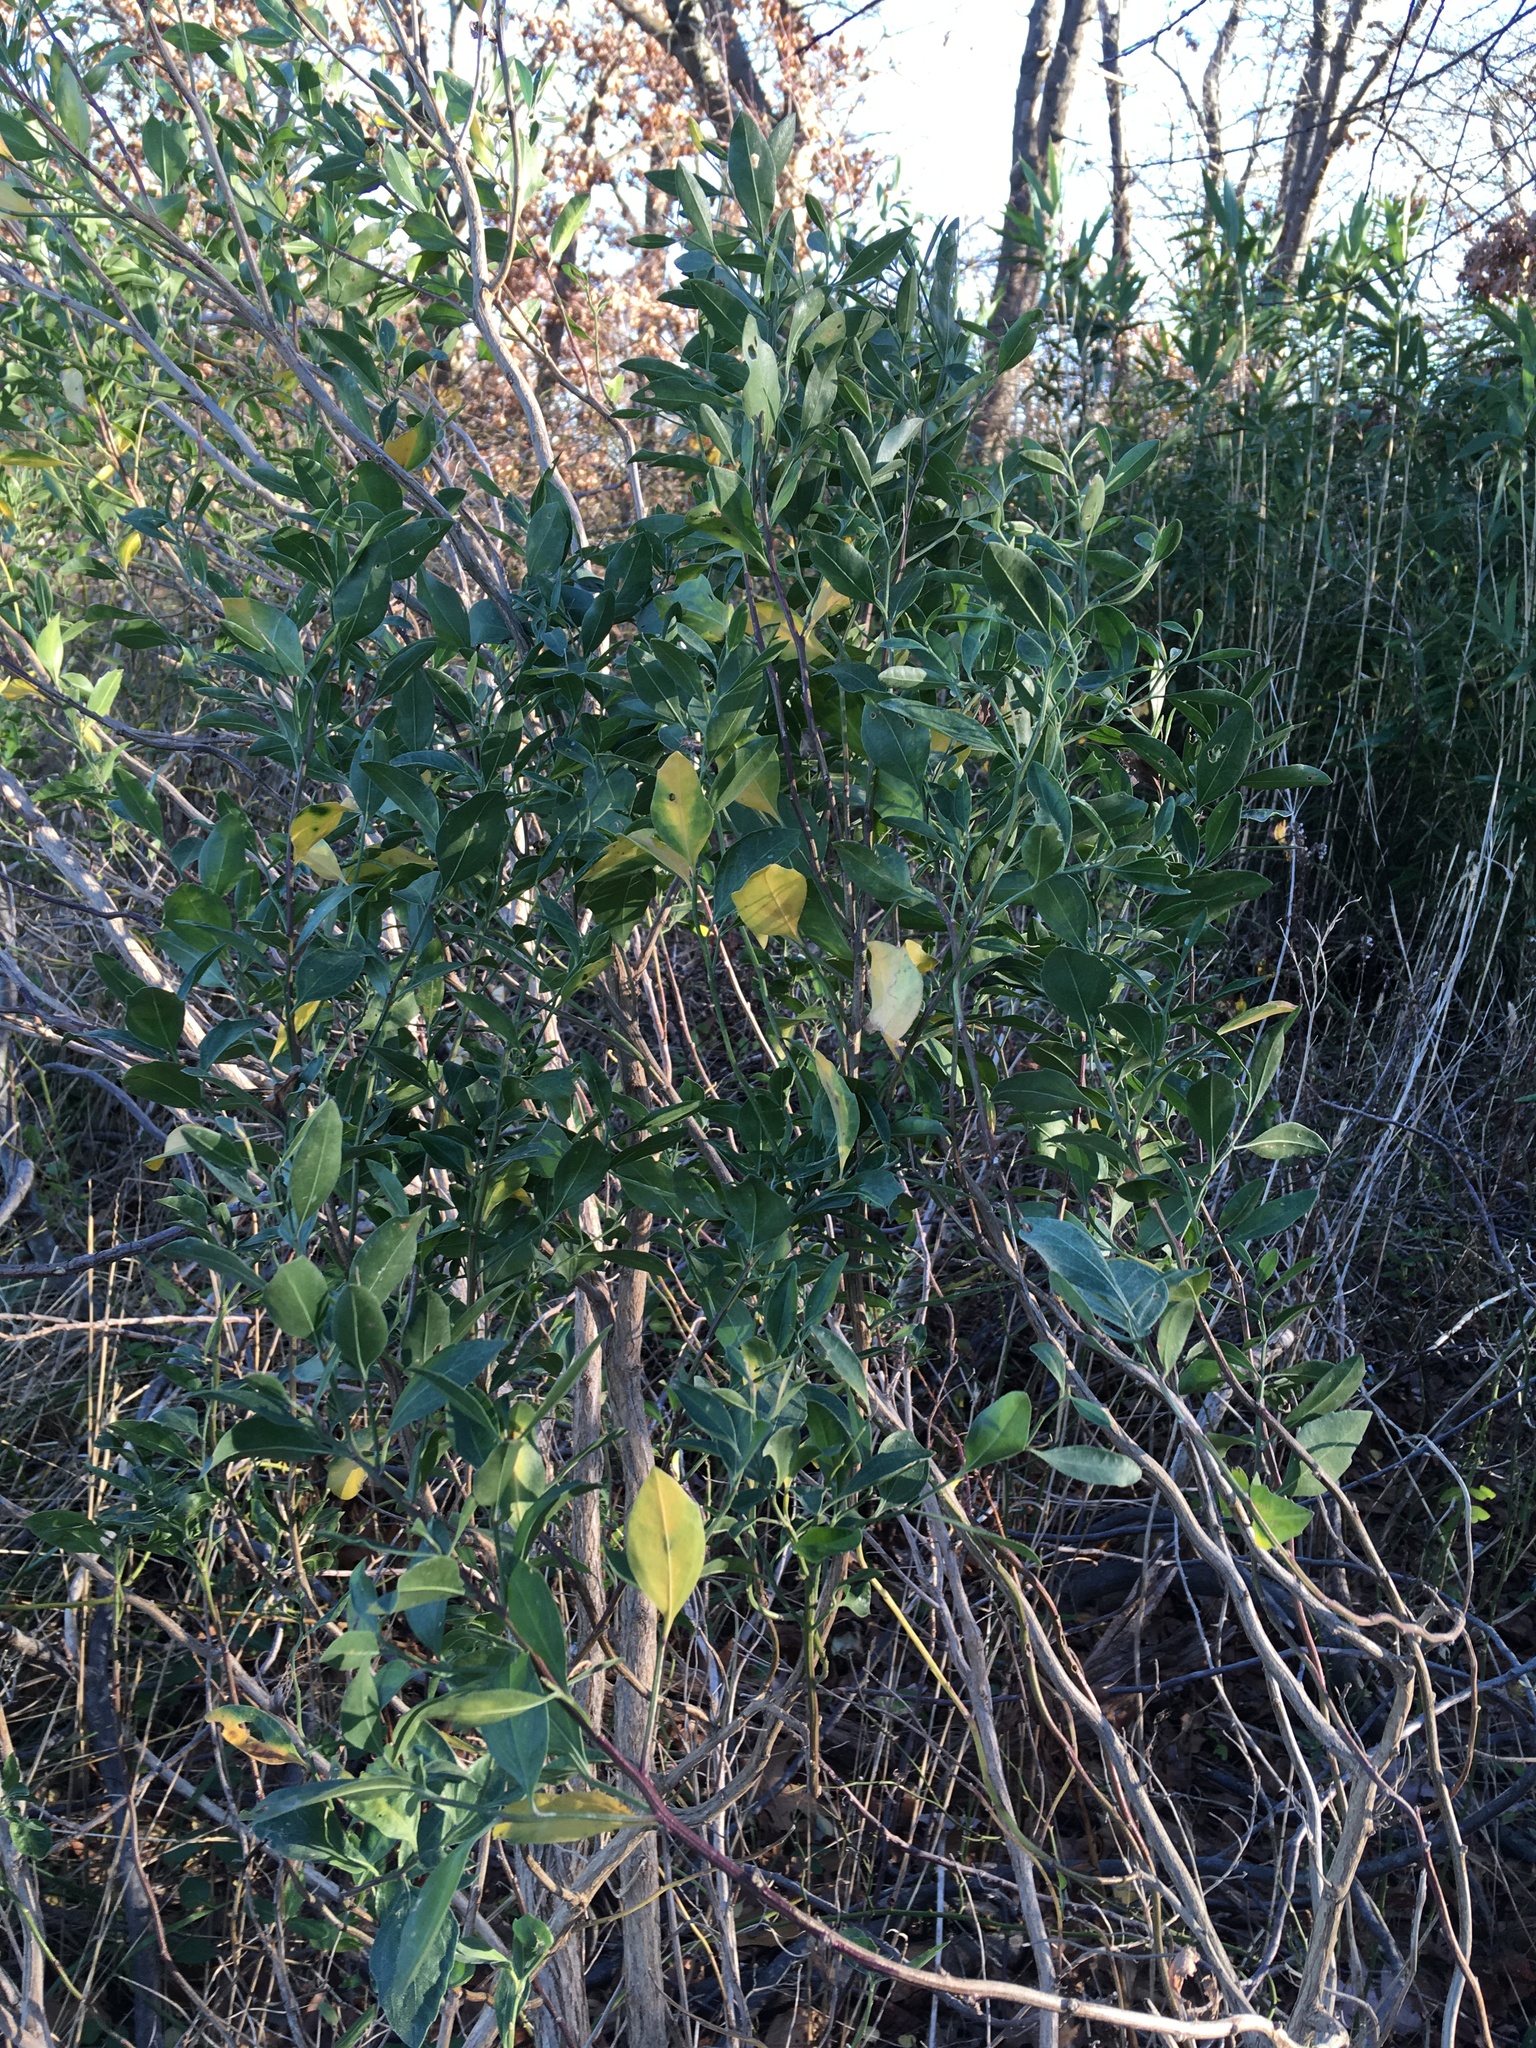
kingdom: Plantae
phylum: Tracheophyta
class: Magnoliopsida
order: Asterales
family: Asteraceae
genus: Baccharis
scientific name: Baccharis halimifolia
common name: Eastern baccharis
